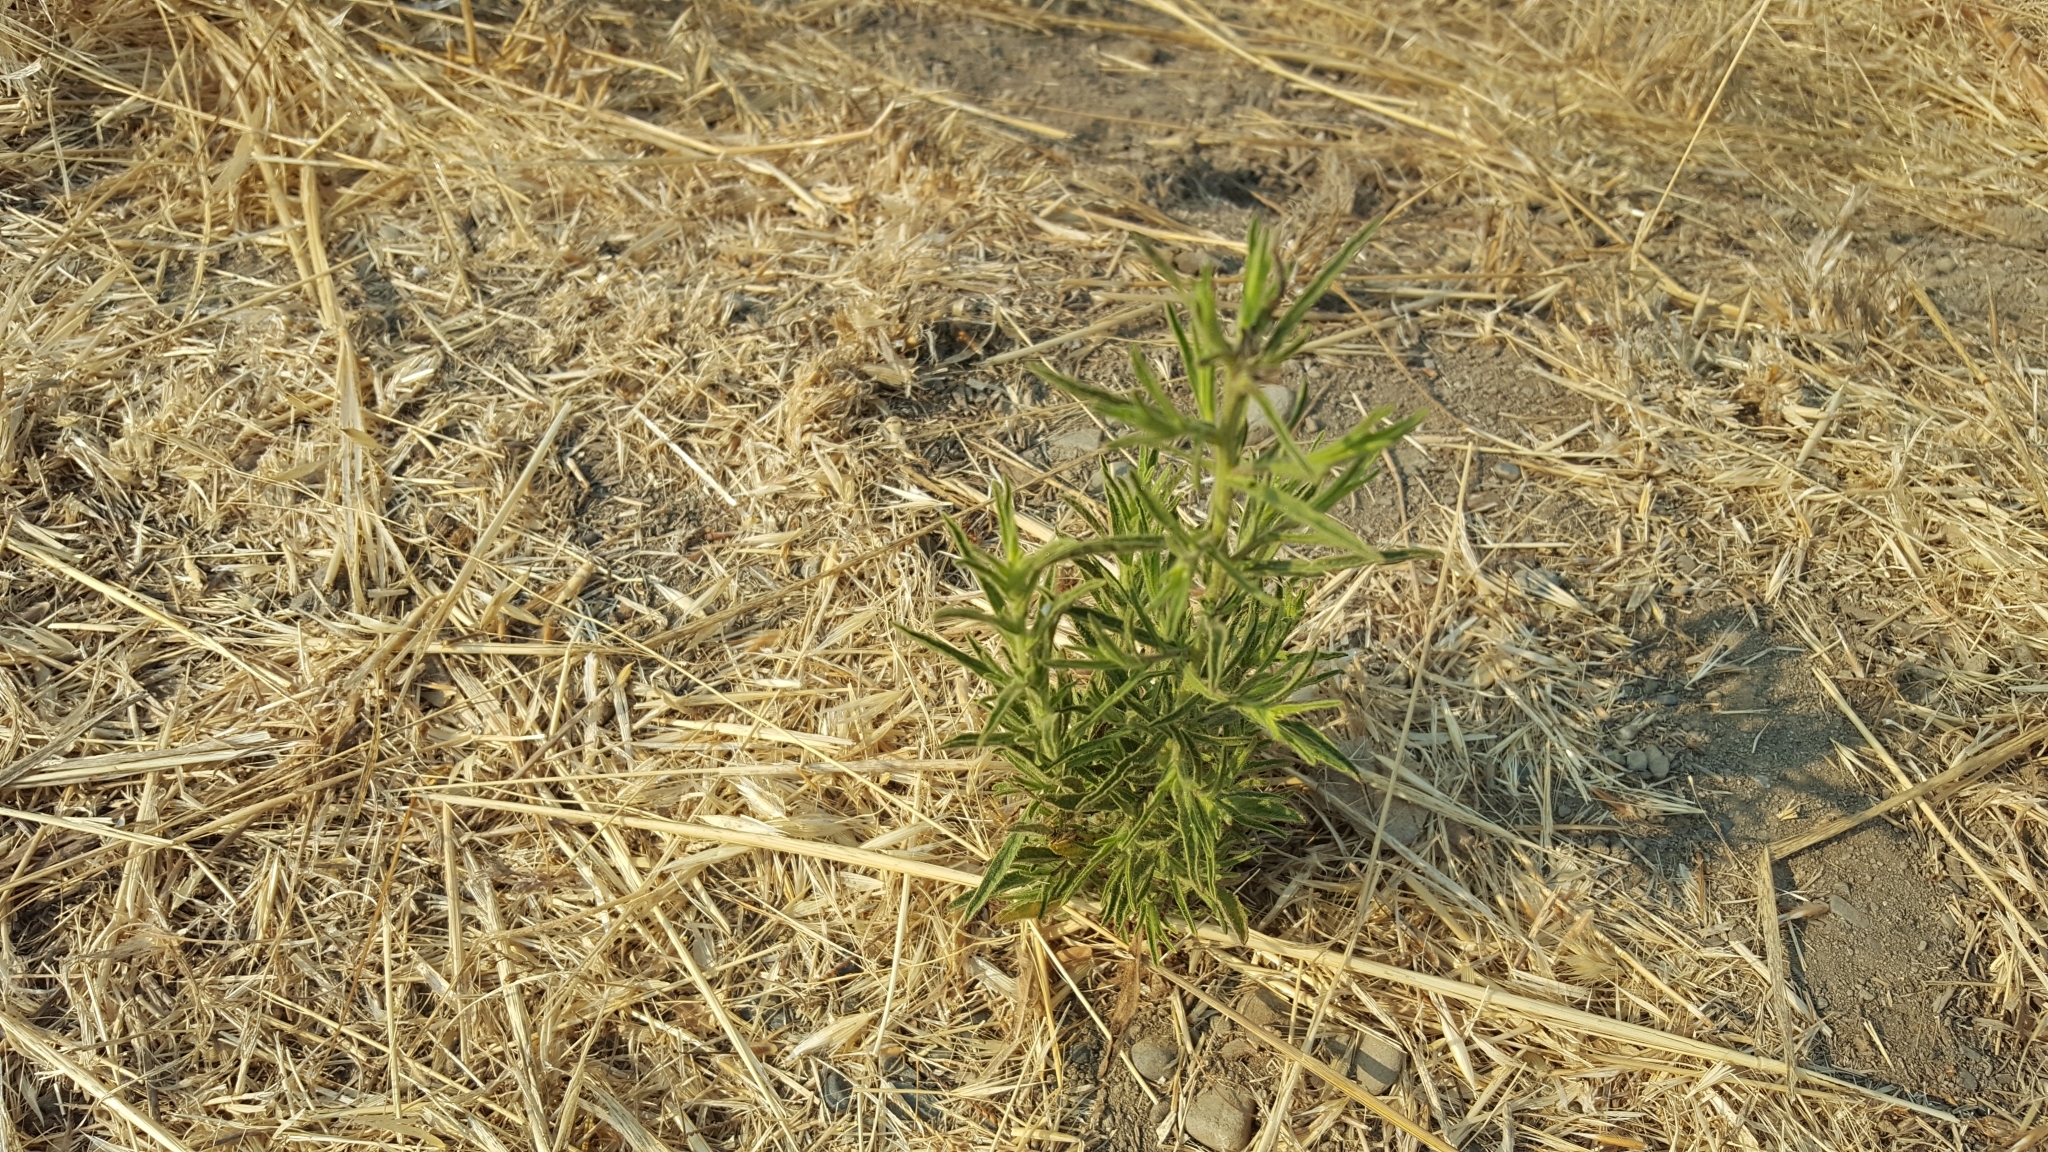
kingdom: Plantae
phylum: Tracheophyta
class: Magnoliopsida
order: Asterales
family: Asteraceae
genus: Dittrichia
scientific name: Dittrichia graveolens
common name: Stinking fleabane
